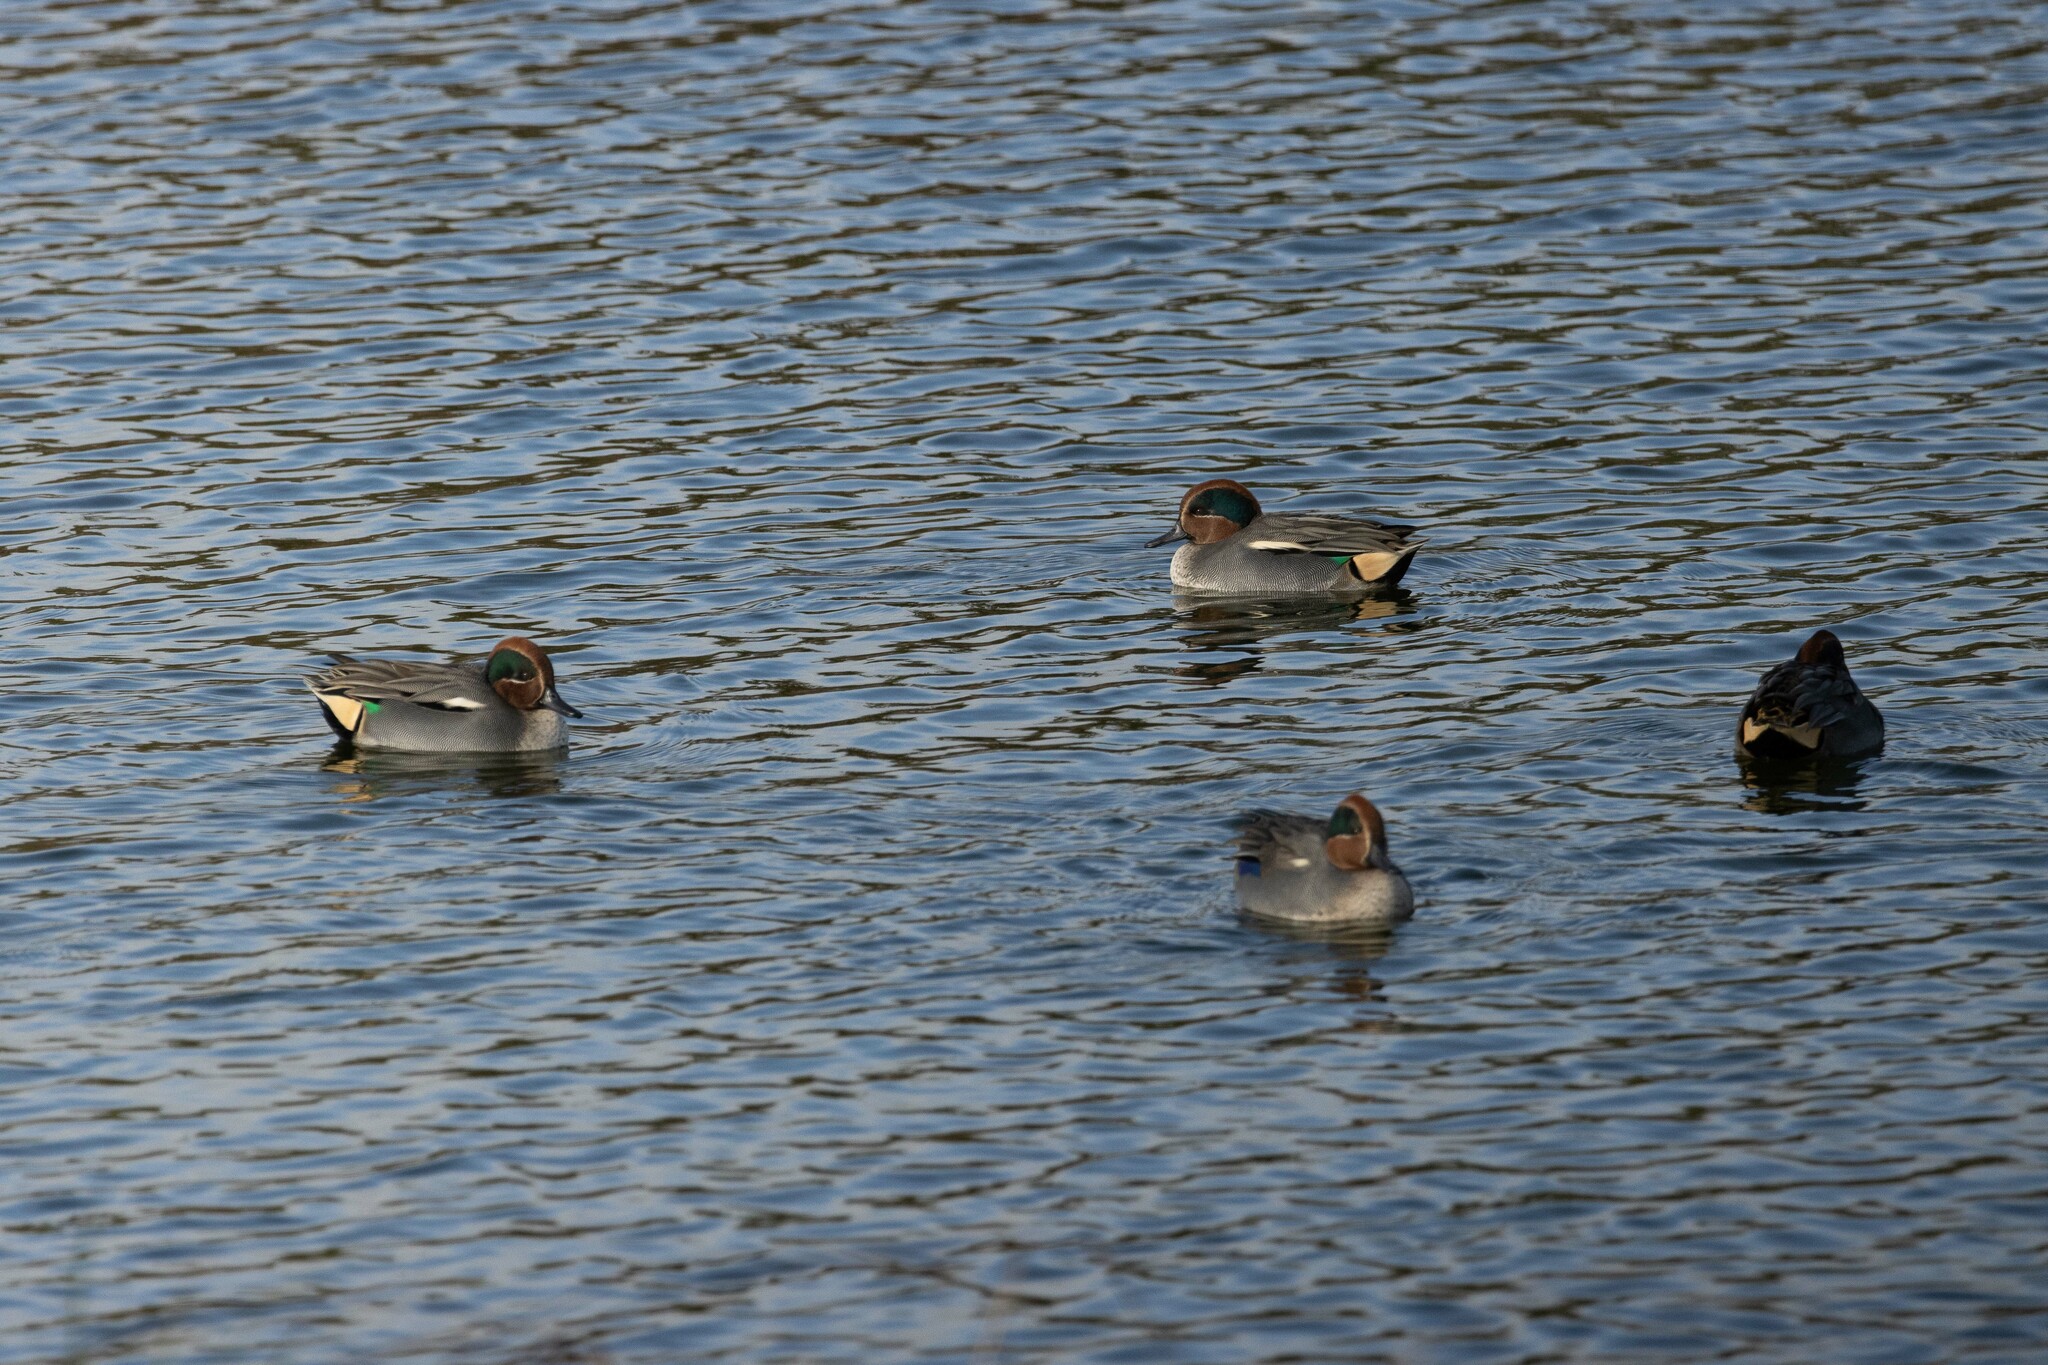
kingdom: Animalia
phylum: Chordata
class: Aves
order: Anseriformes
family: Anatidae
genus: Anas
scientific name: Anas crecca
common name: Eurasian teal
